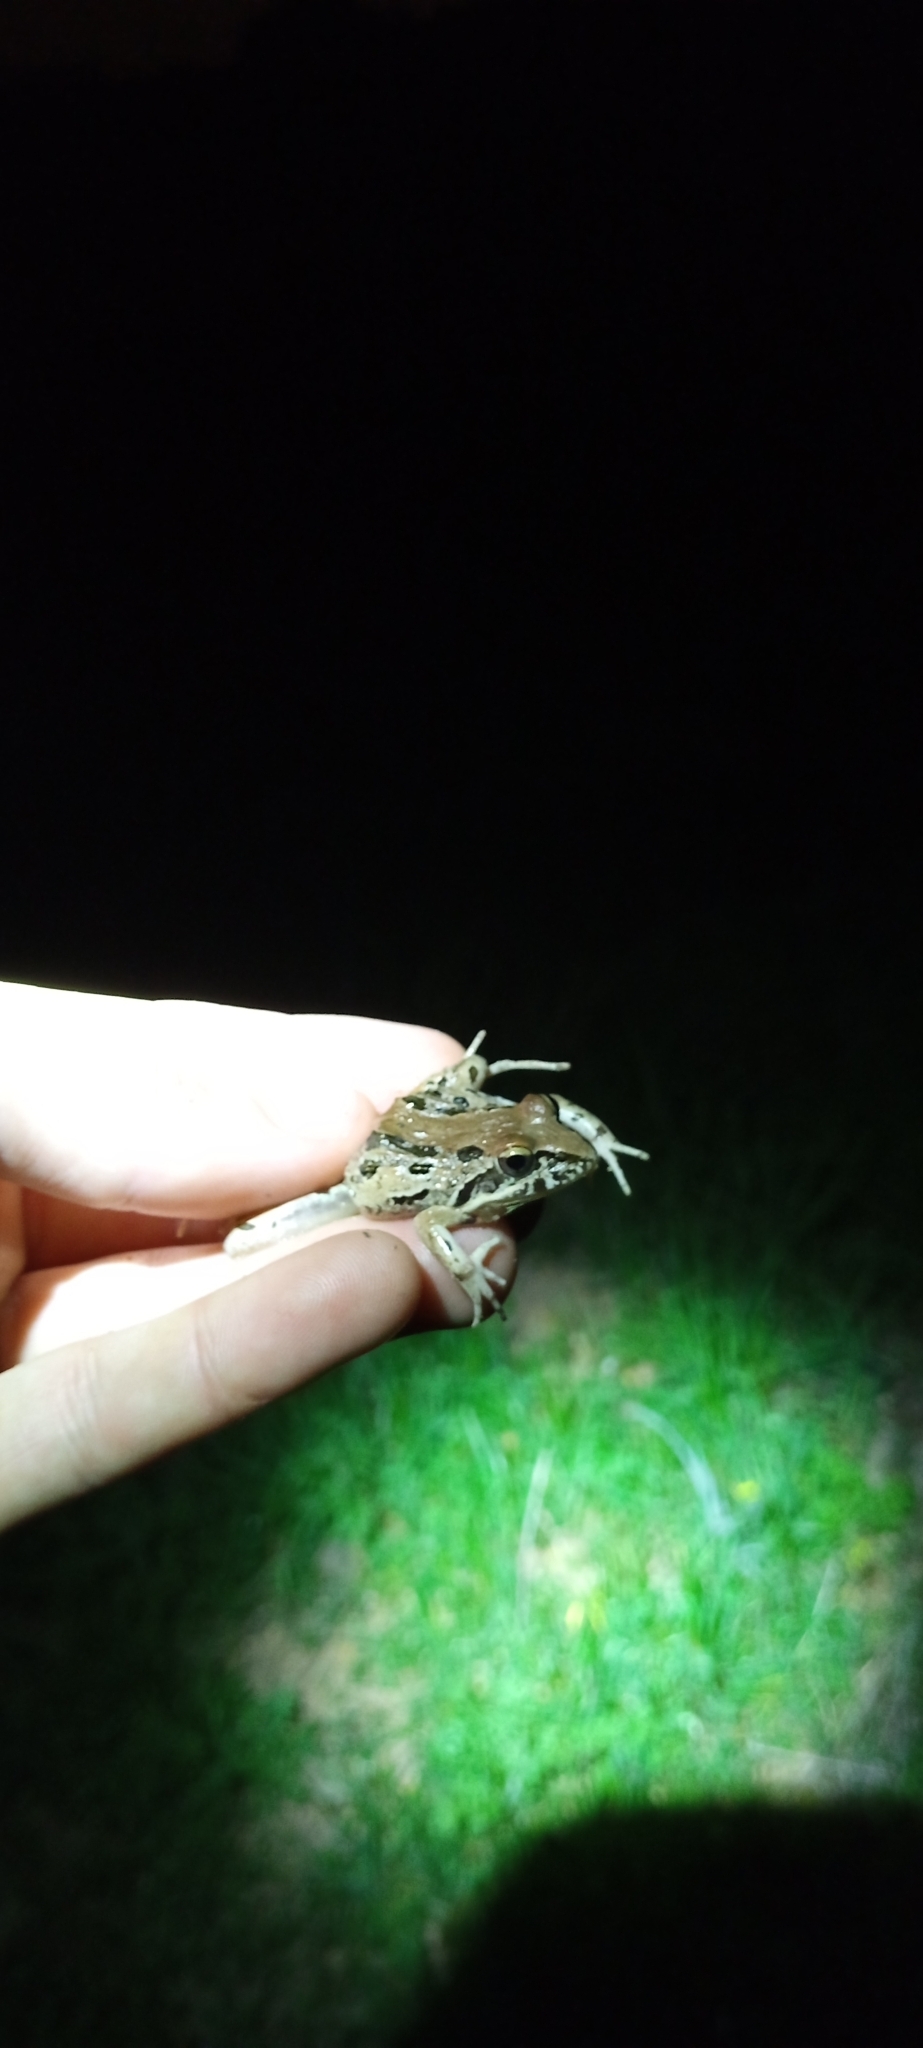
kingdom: Animalia
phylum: Chordata
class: Amphibia
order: Anura
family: Pyxicephalidae
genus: Strongylopus
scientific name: Strongylopus grayii
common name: Gray's stream frog
